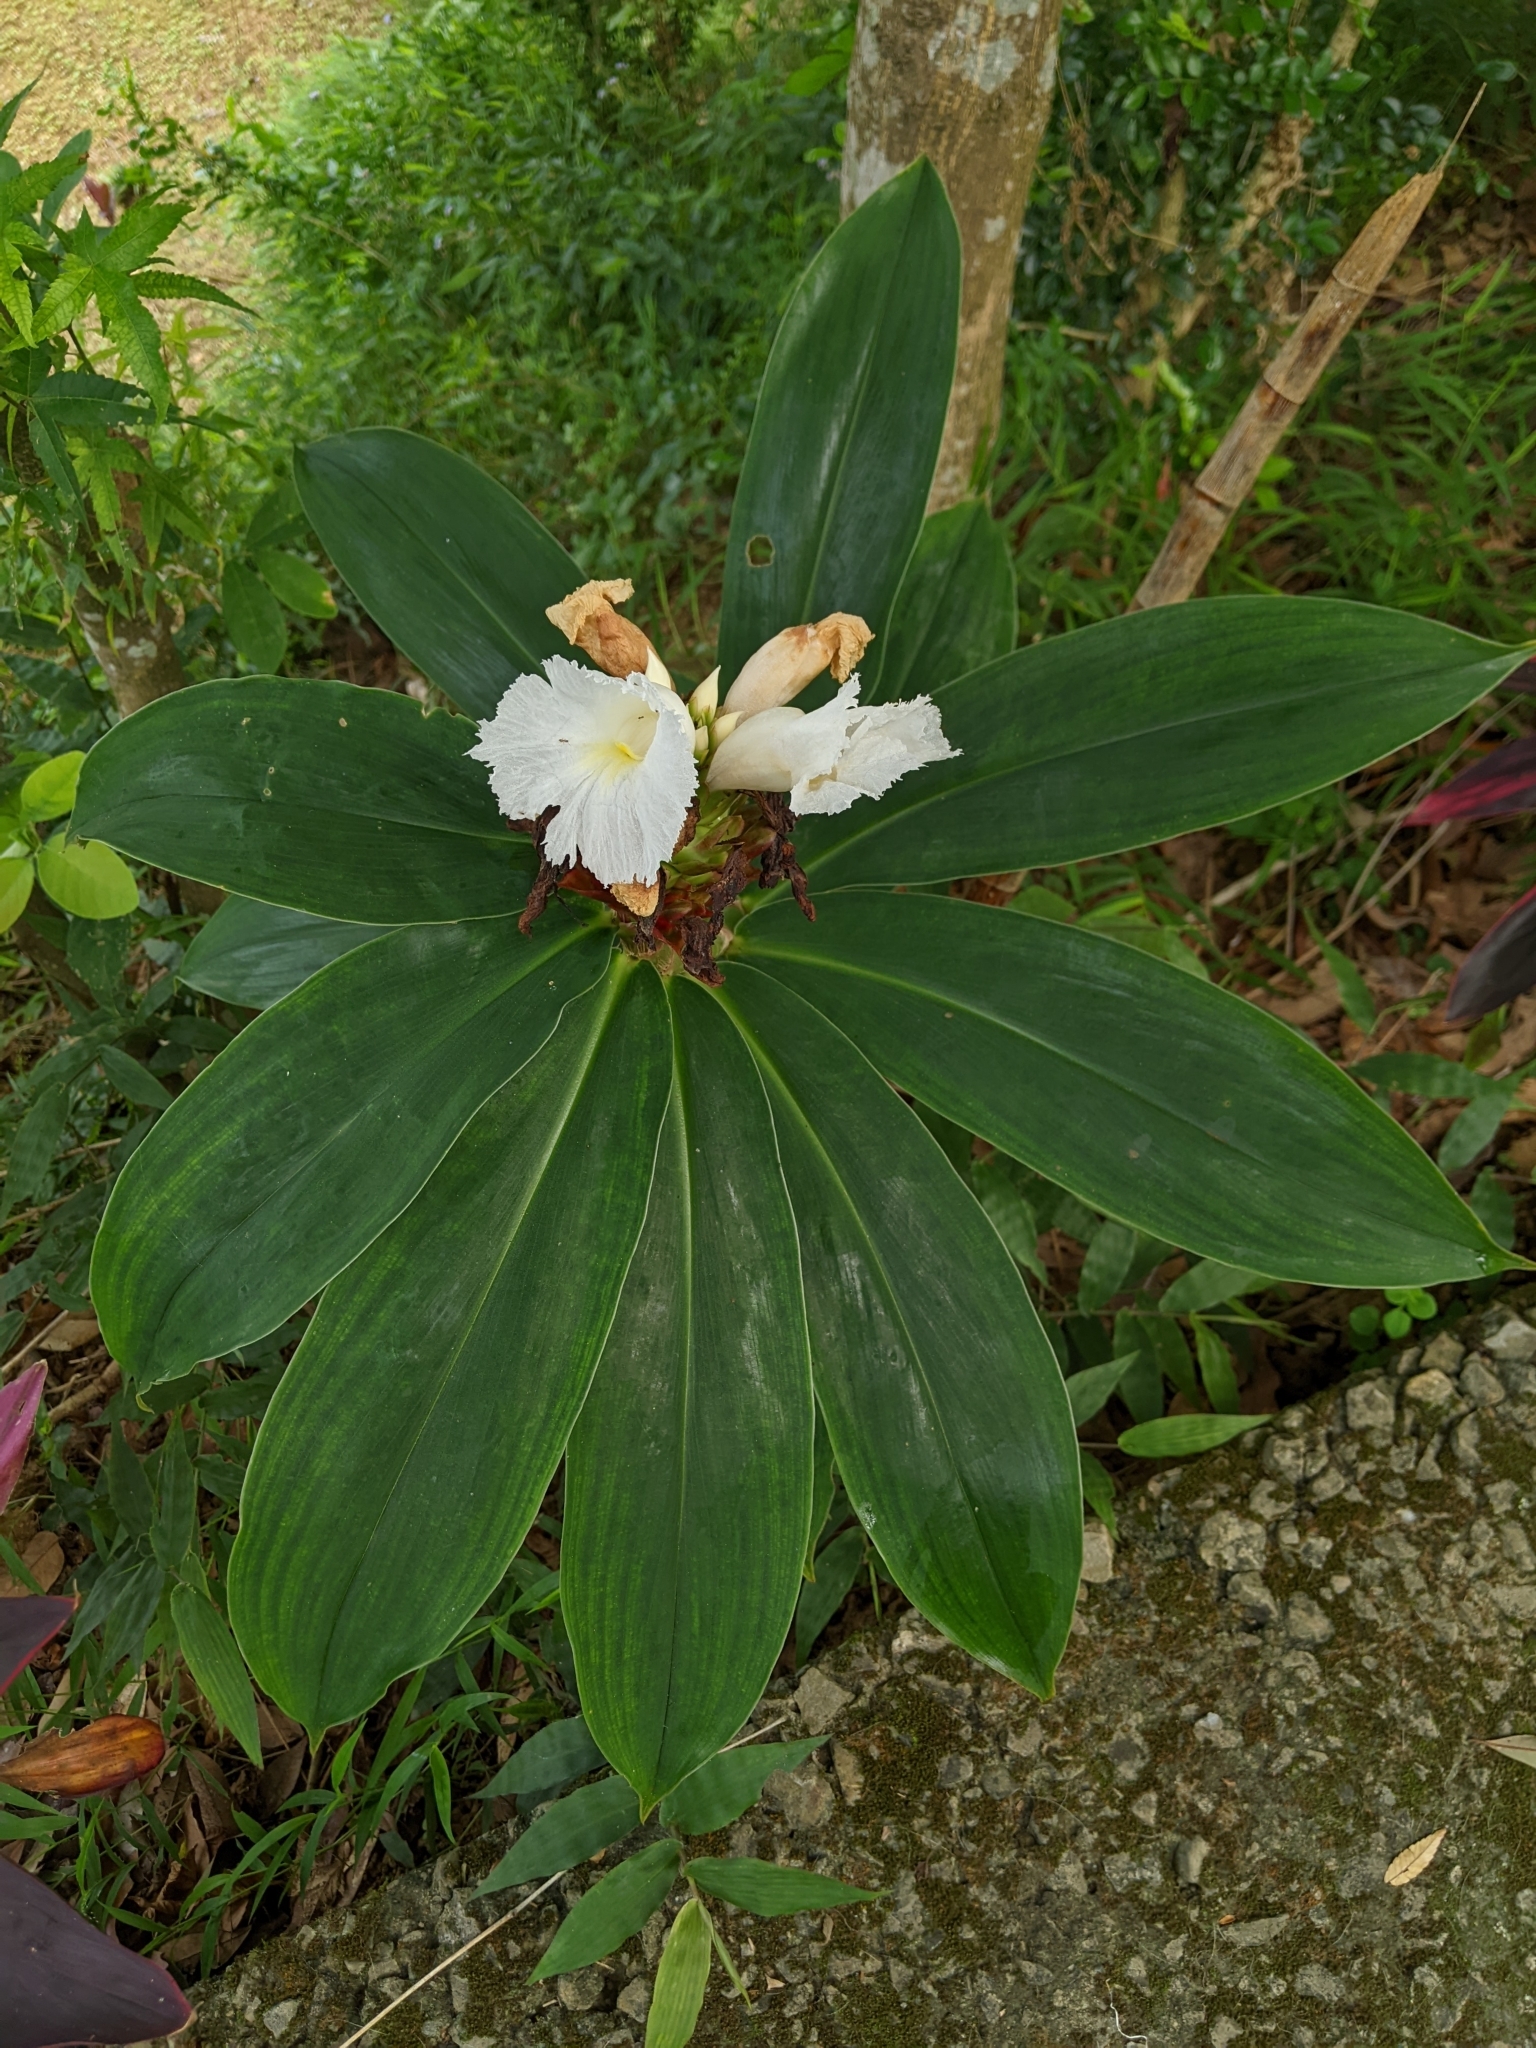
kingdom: Plantae
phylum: Tracheophyta
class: Liliopsida
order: Zingiberales
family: Costaceae
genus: Hellenia
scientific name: Hellenia speciosa
